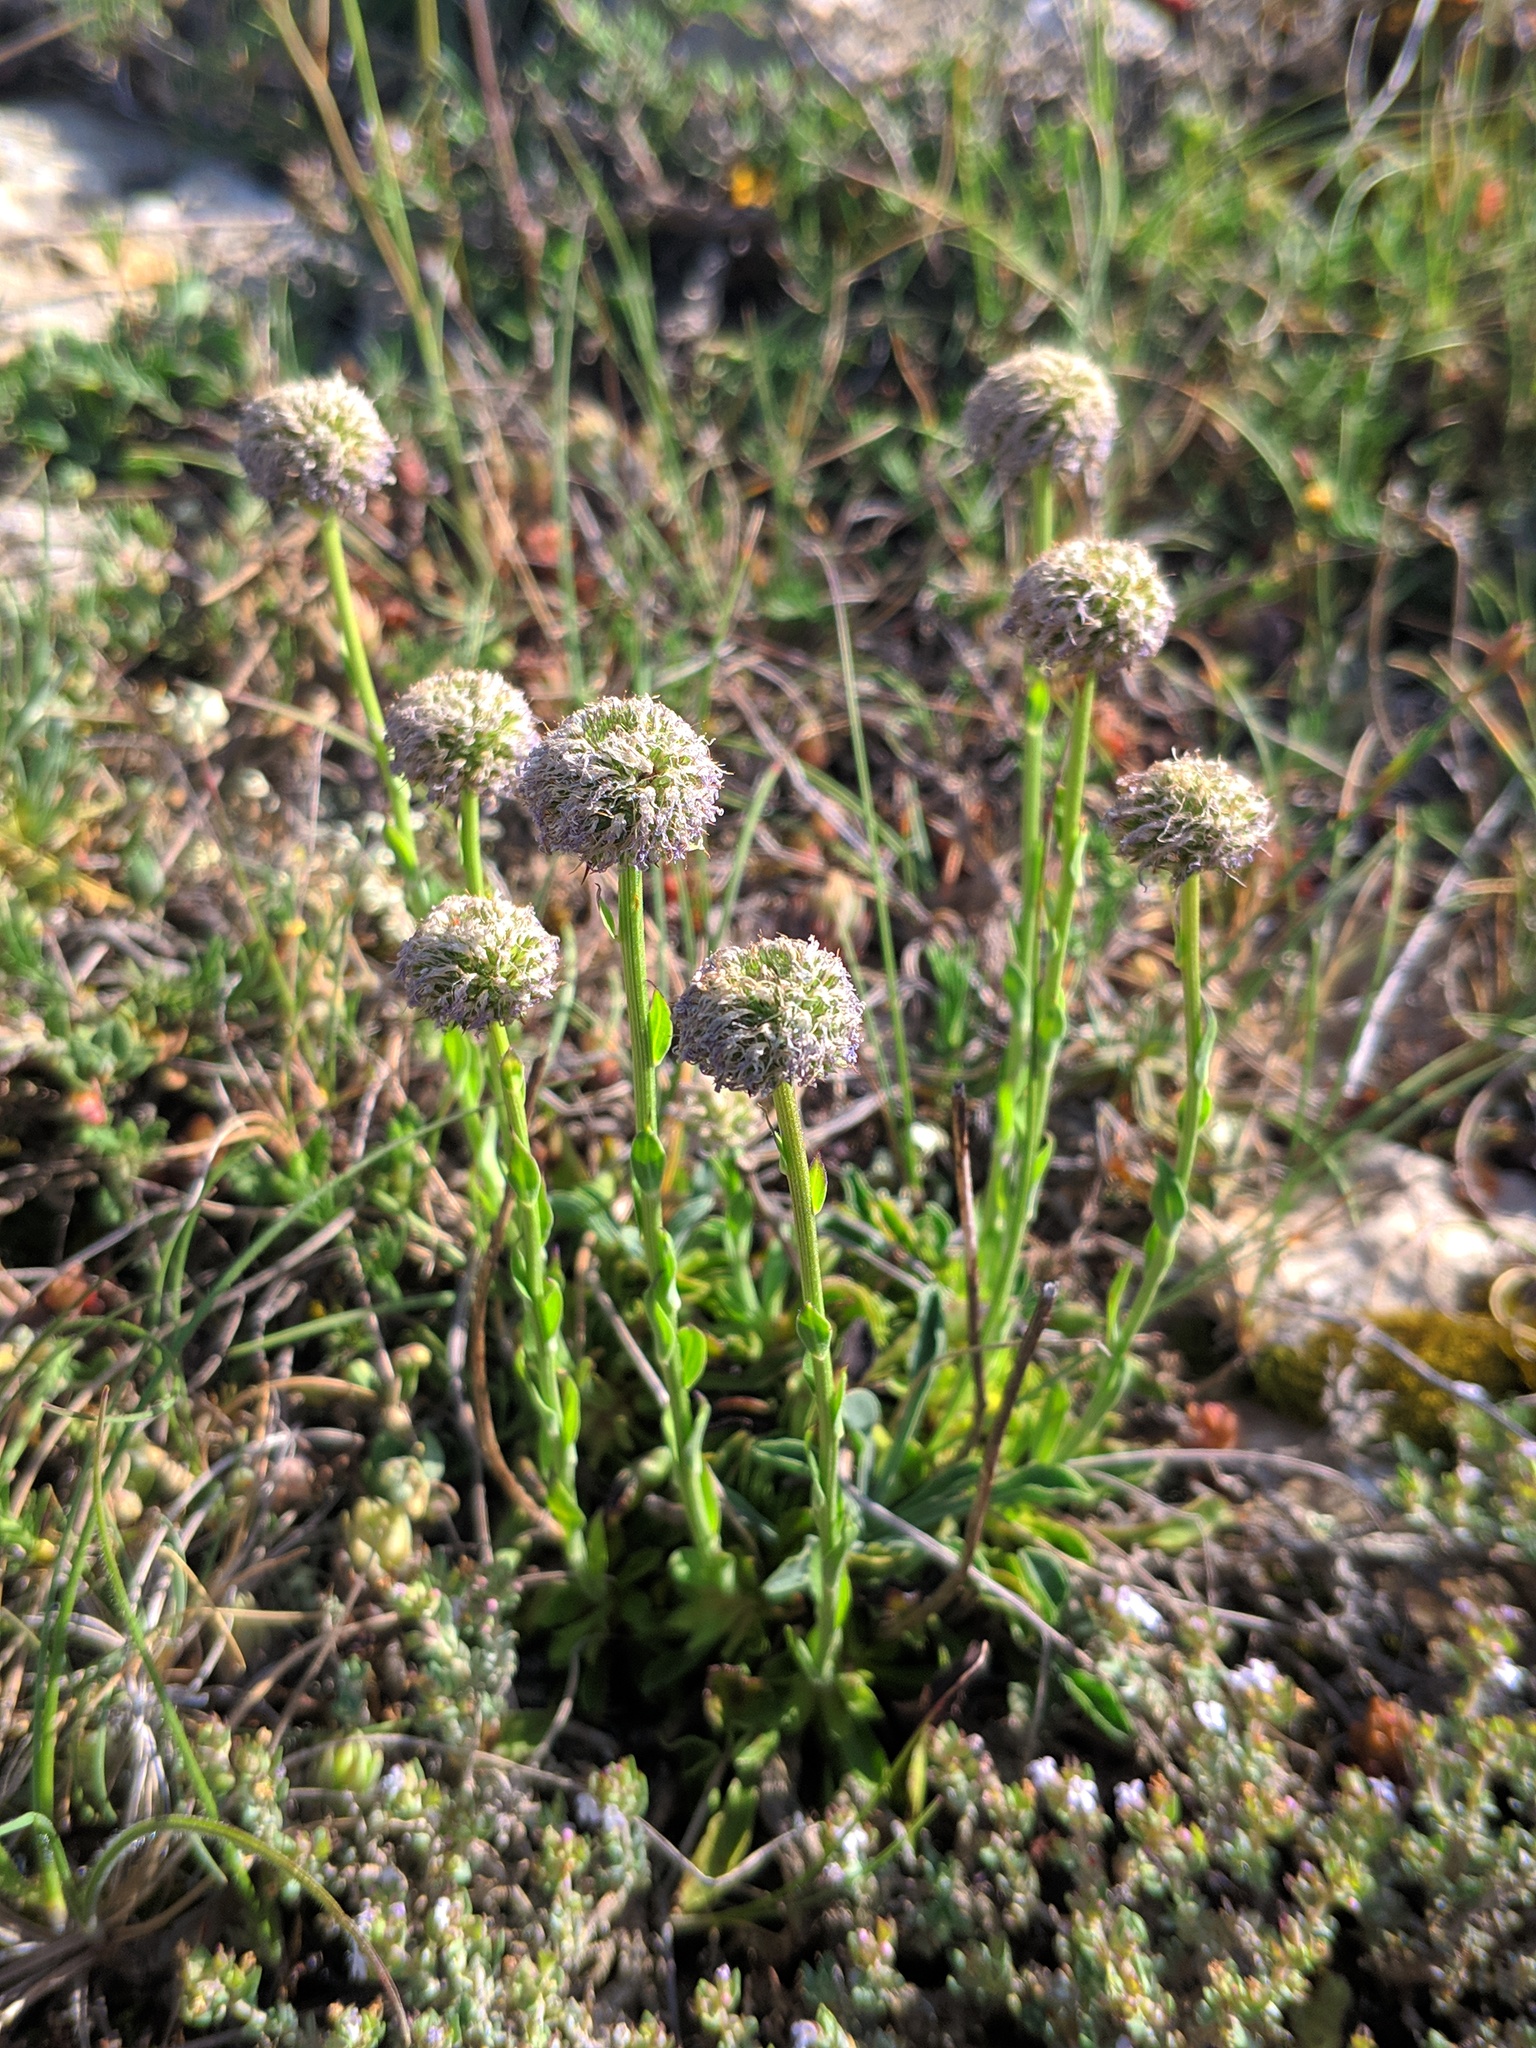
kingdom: Plantae
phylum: Tracheophyta
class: Magnoliopsida
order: Lamiales
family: Plantaginaceae
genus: Globularia
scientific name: Globularia vulgaris
